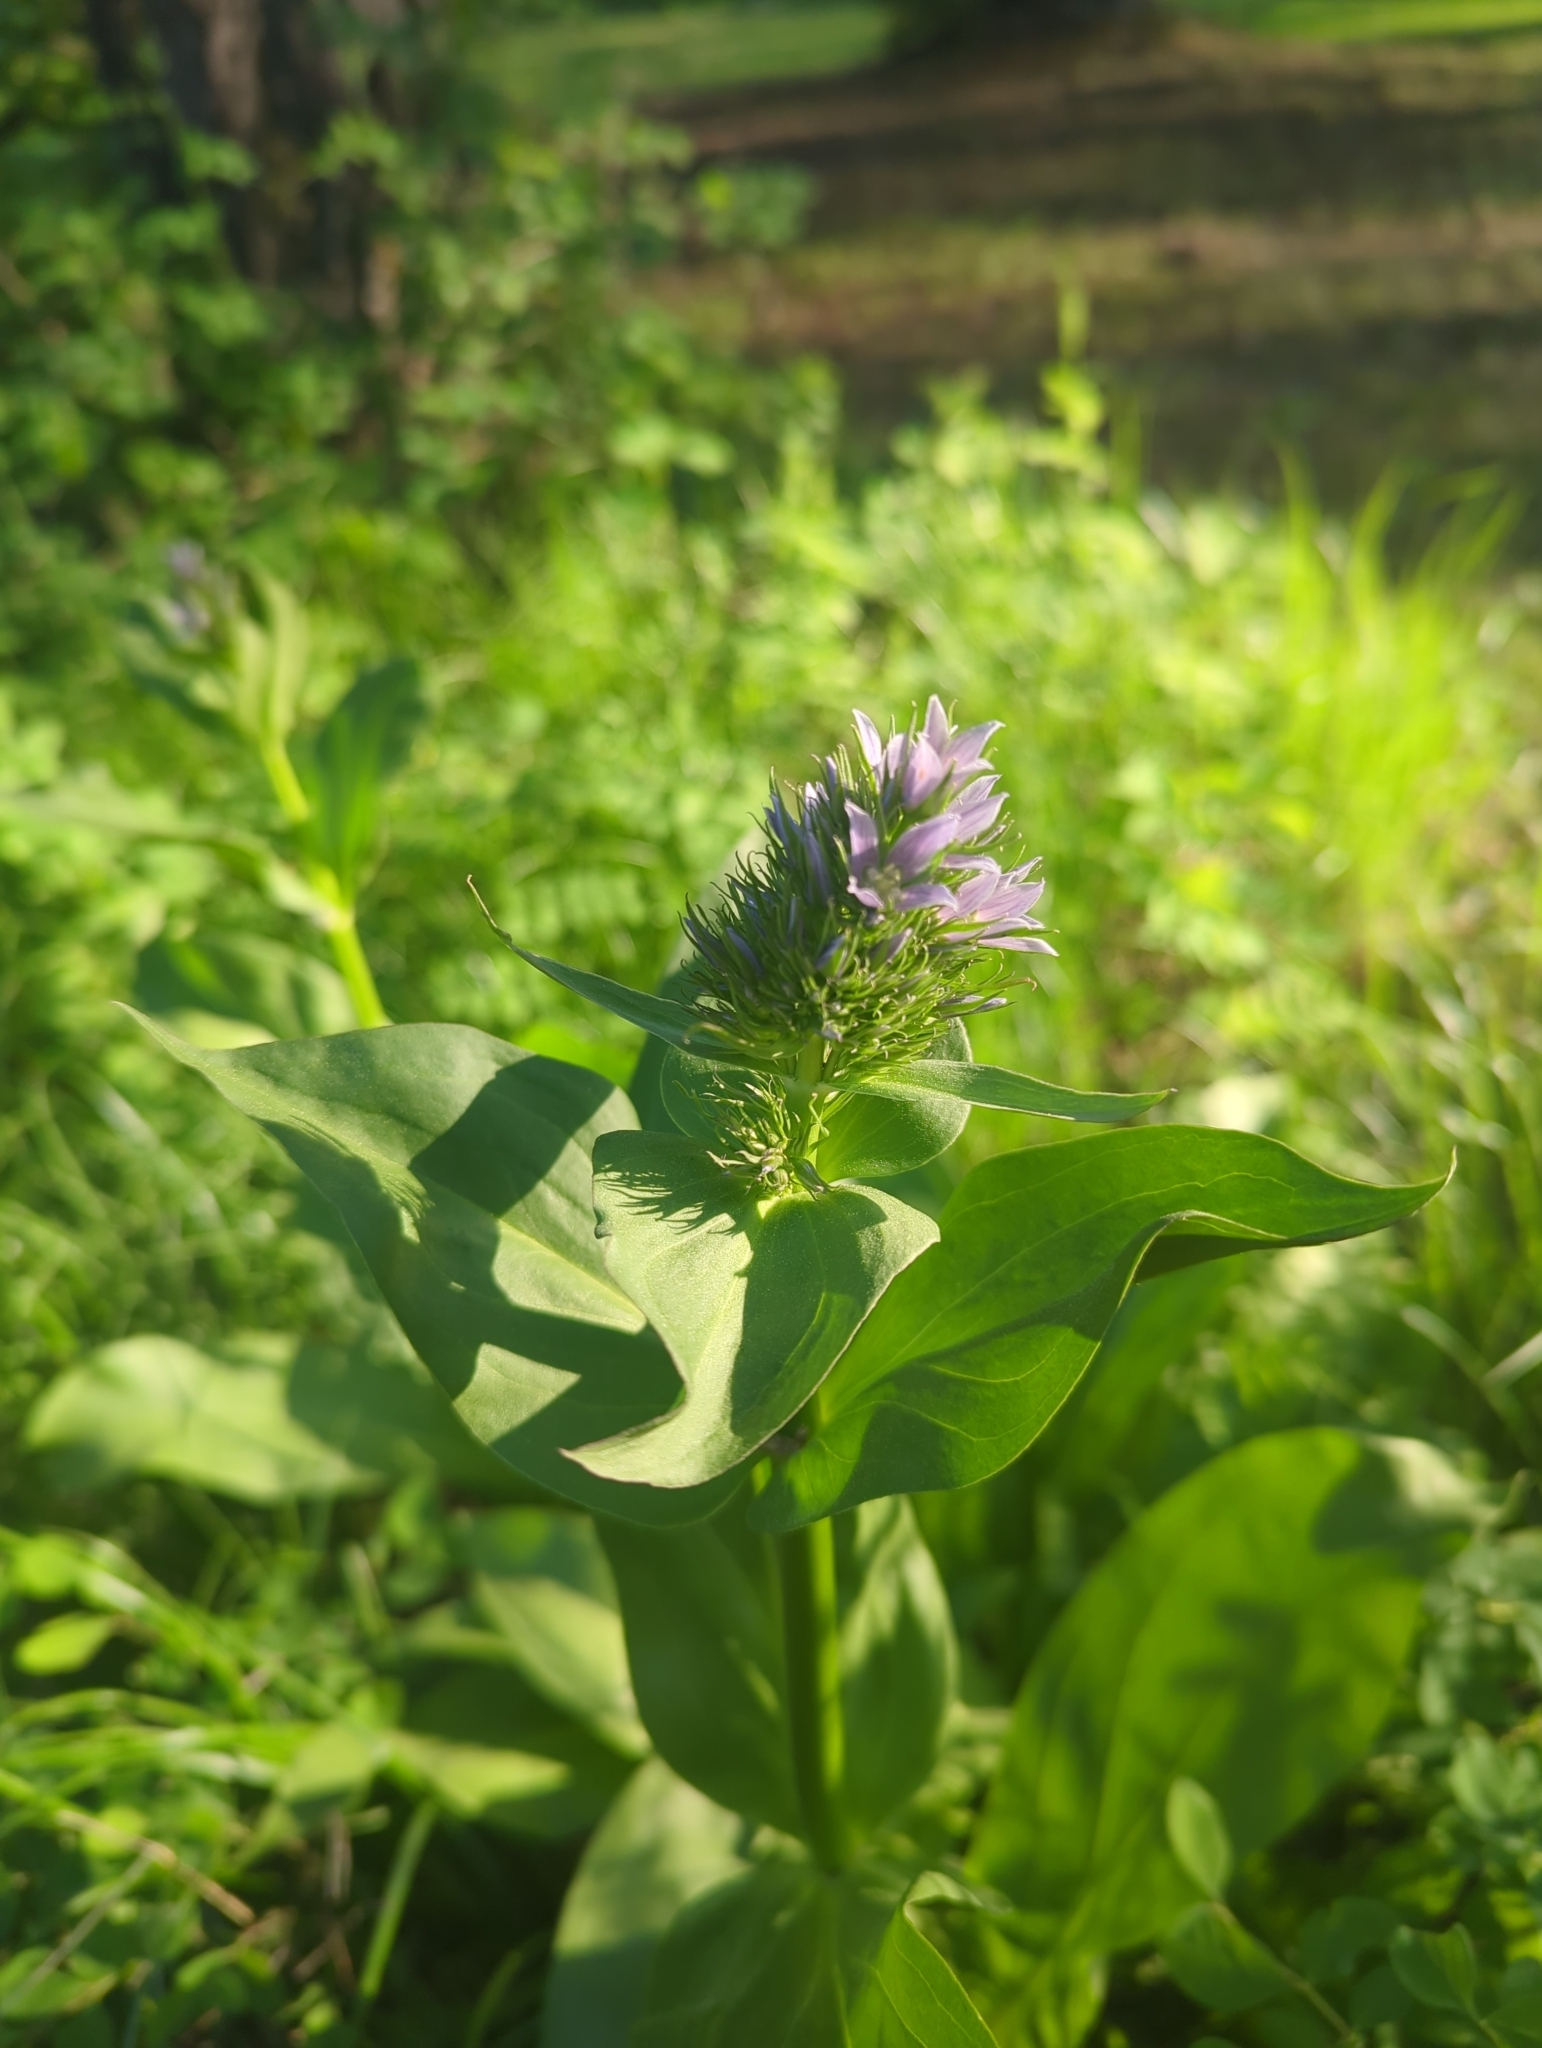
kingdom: Plantae
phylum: Tracheophyta
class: Magnoliopsida
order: Gentianales
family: Gentianaceae
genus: Frasera
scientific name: Frasera fastigiata
